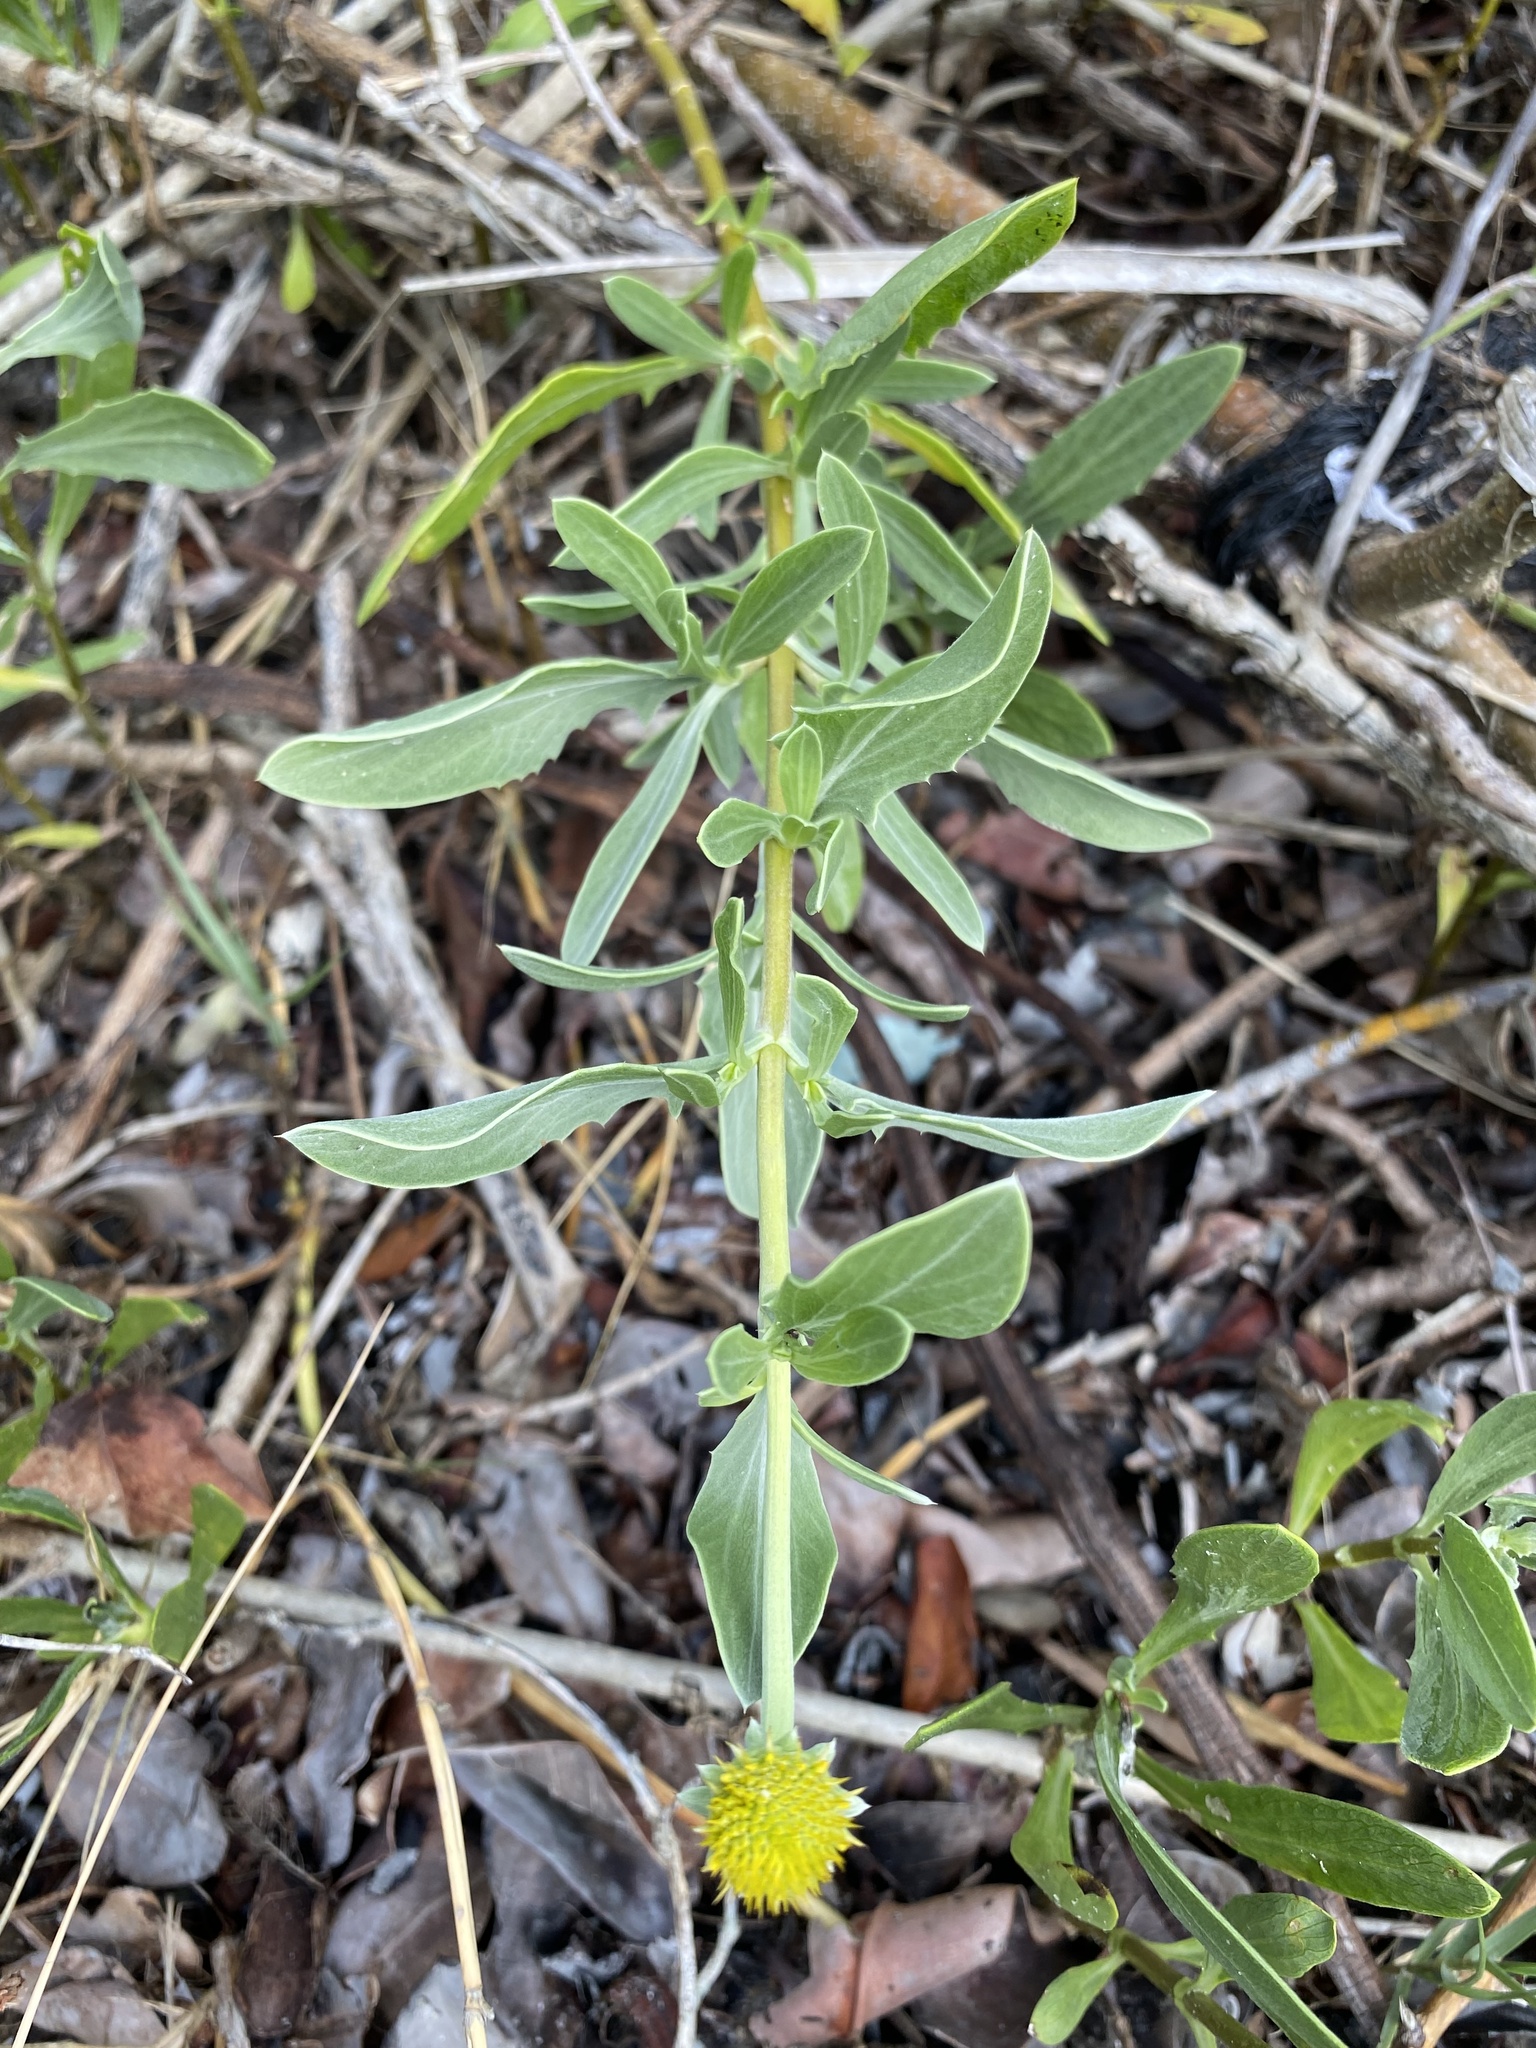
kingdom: Plantae
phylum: Tracheophyta
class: Magnoliopsida
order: Asterales
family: Asteraceae
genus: Borrichia
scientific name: Borrichia frutescens
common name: Sea oxeye
